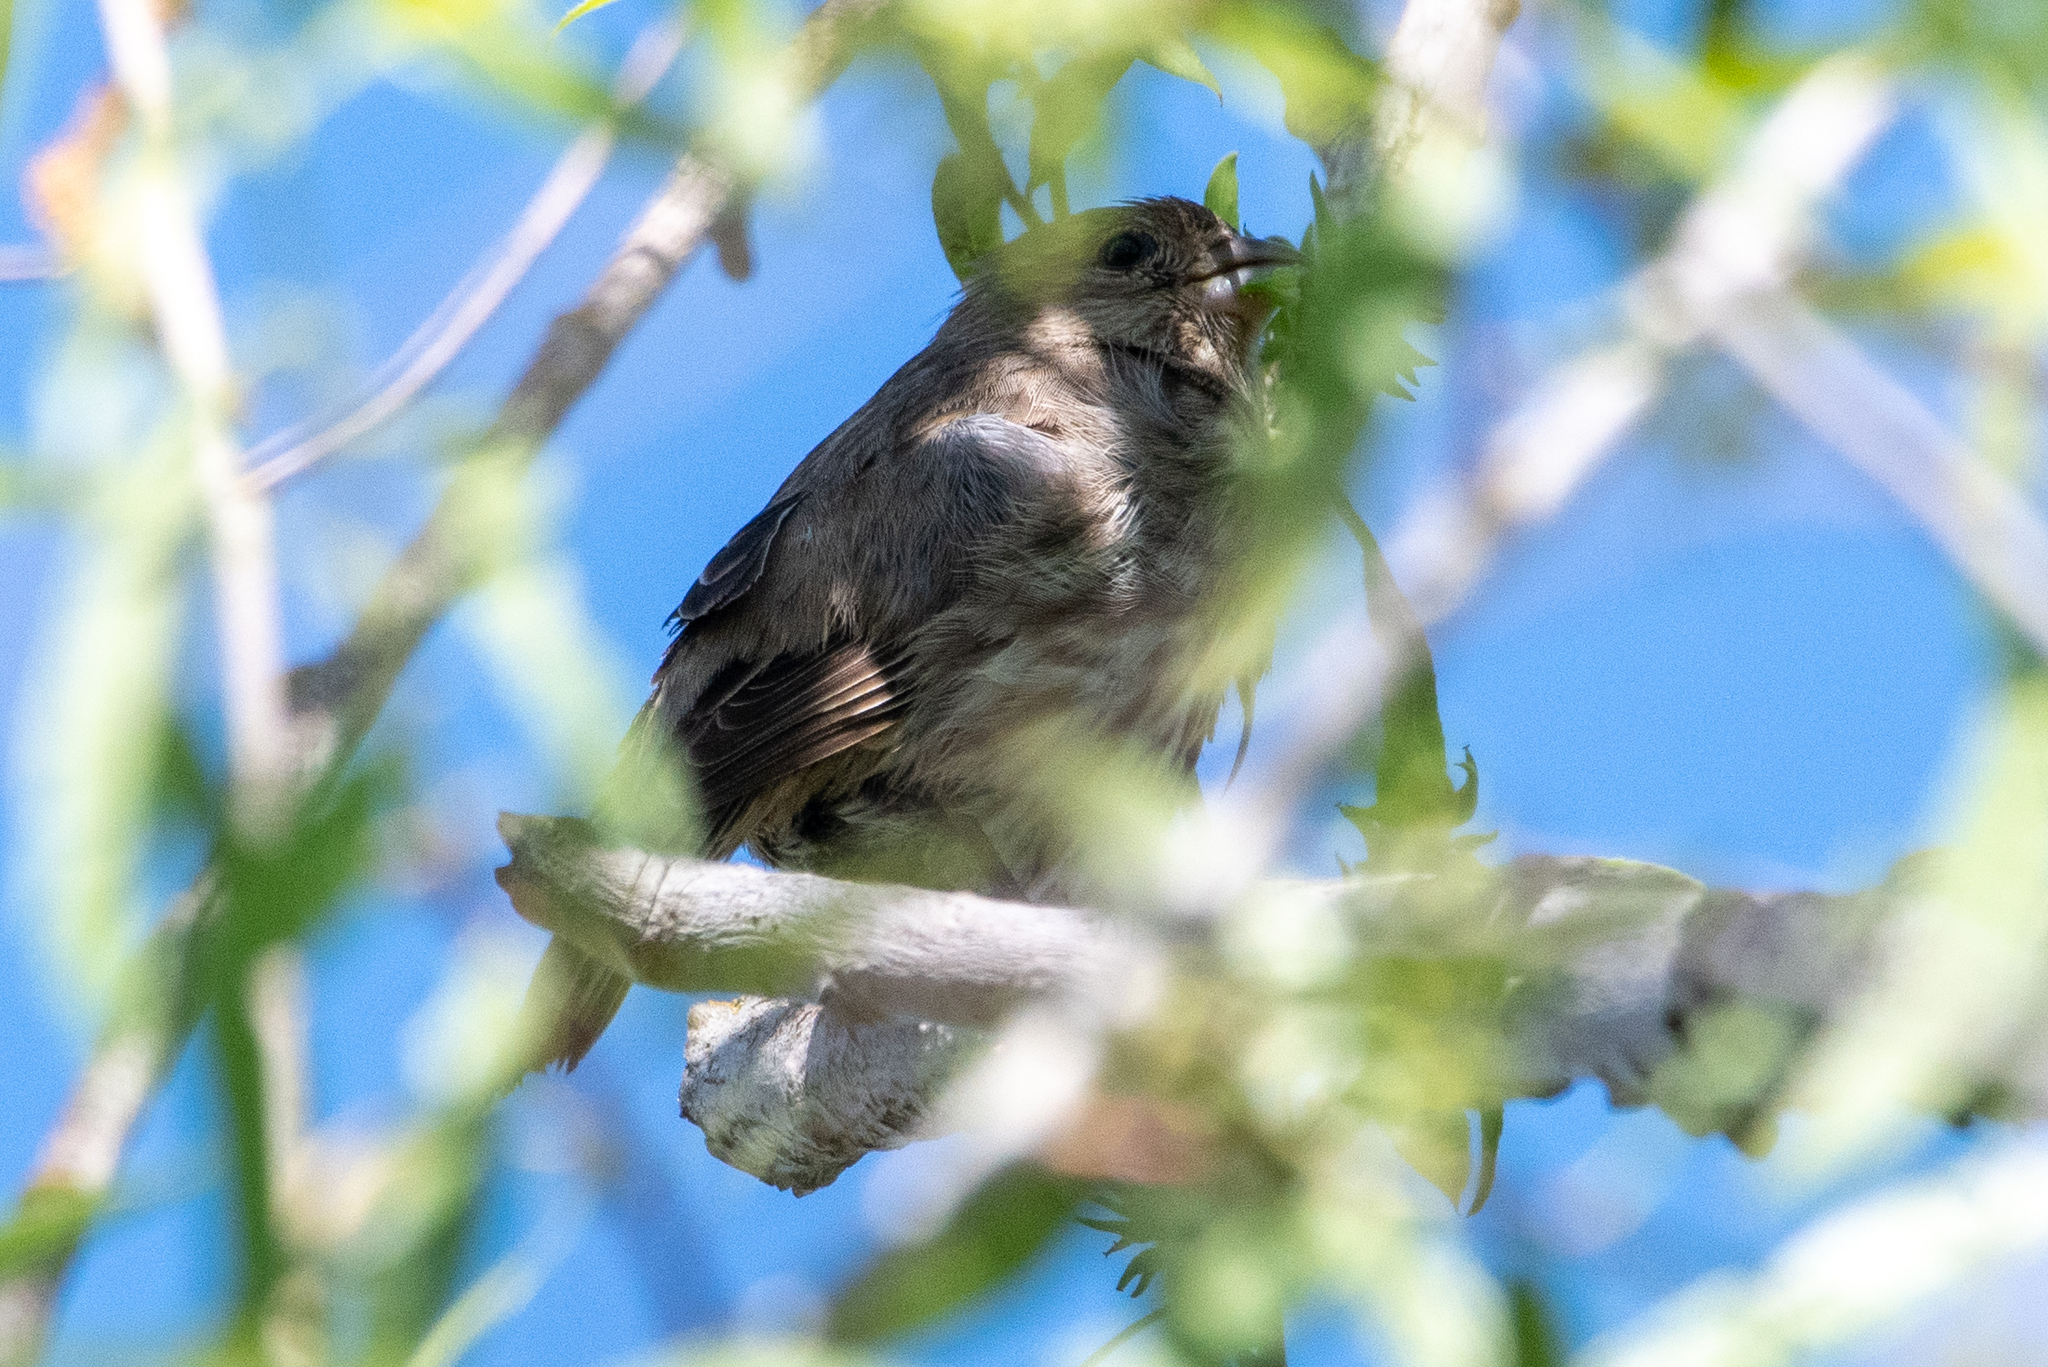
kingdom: Animalia
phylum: Chordata
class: Aves
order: Passeriformes
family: Fringillidae
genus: Haemorhous
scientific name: Haemorhous mexicanus
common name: House finch
